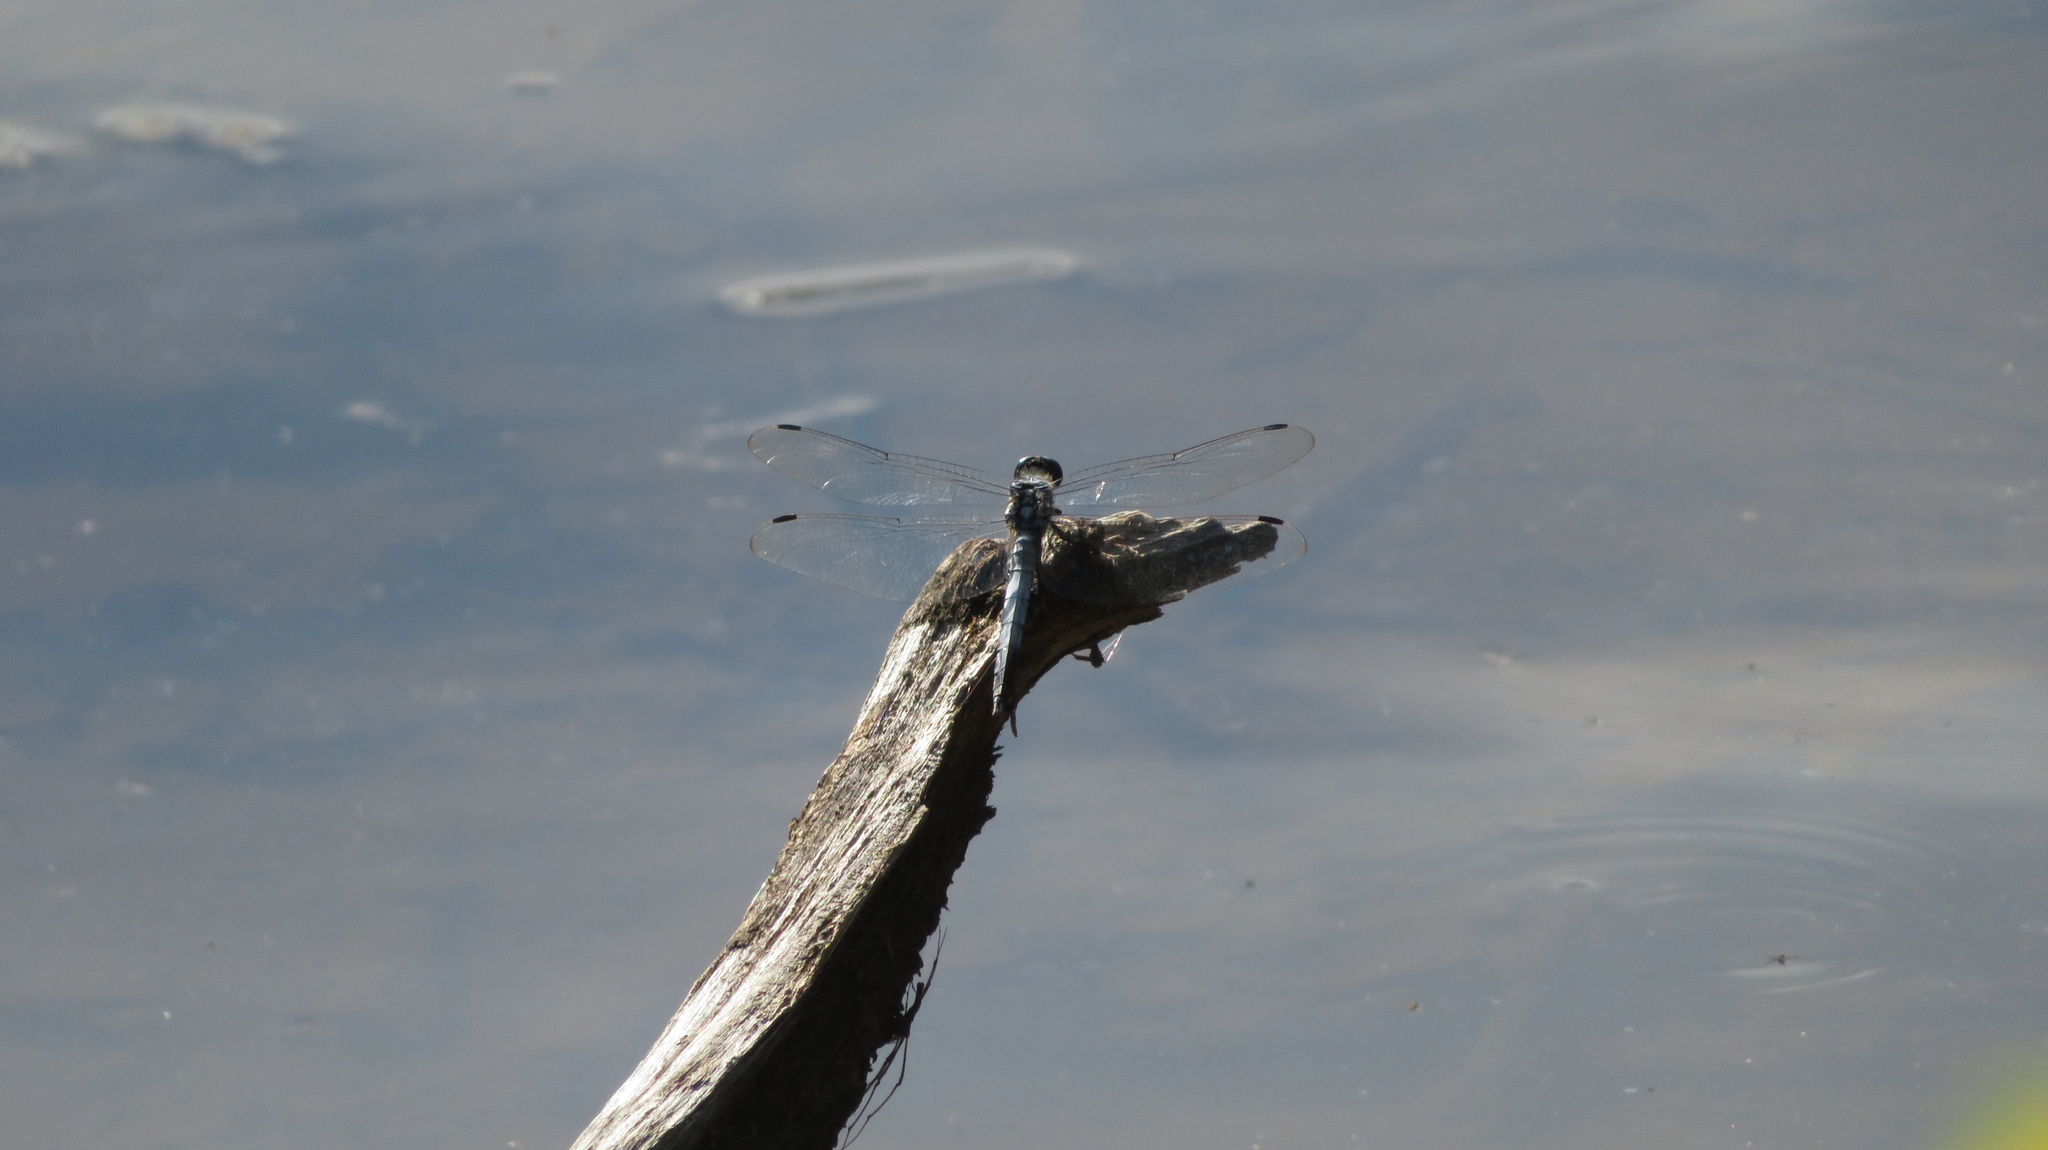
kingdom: Animalia
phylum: Arthropoda
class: Insecta
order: Odonata
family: Libellulidae
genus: Orthetrum
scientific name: Orthetrum albistylum
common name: White-tailed skimmer
